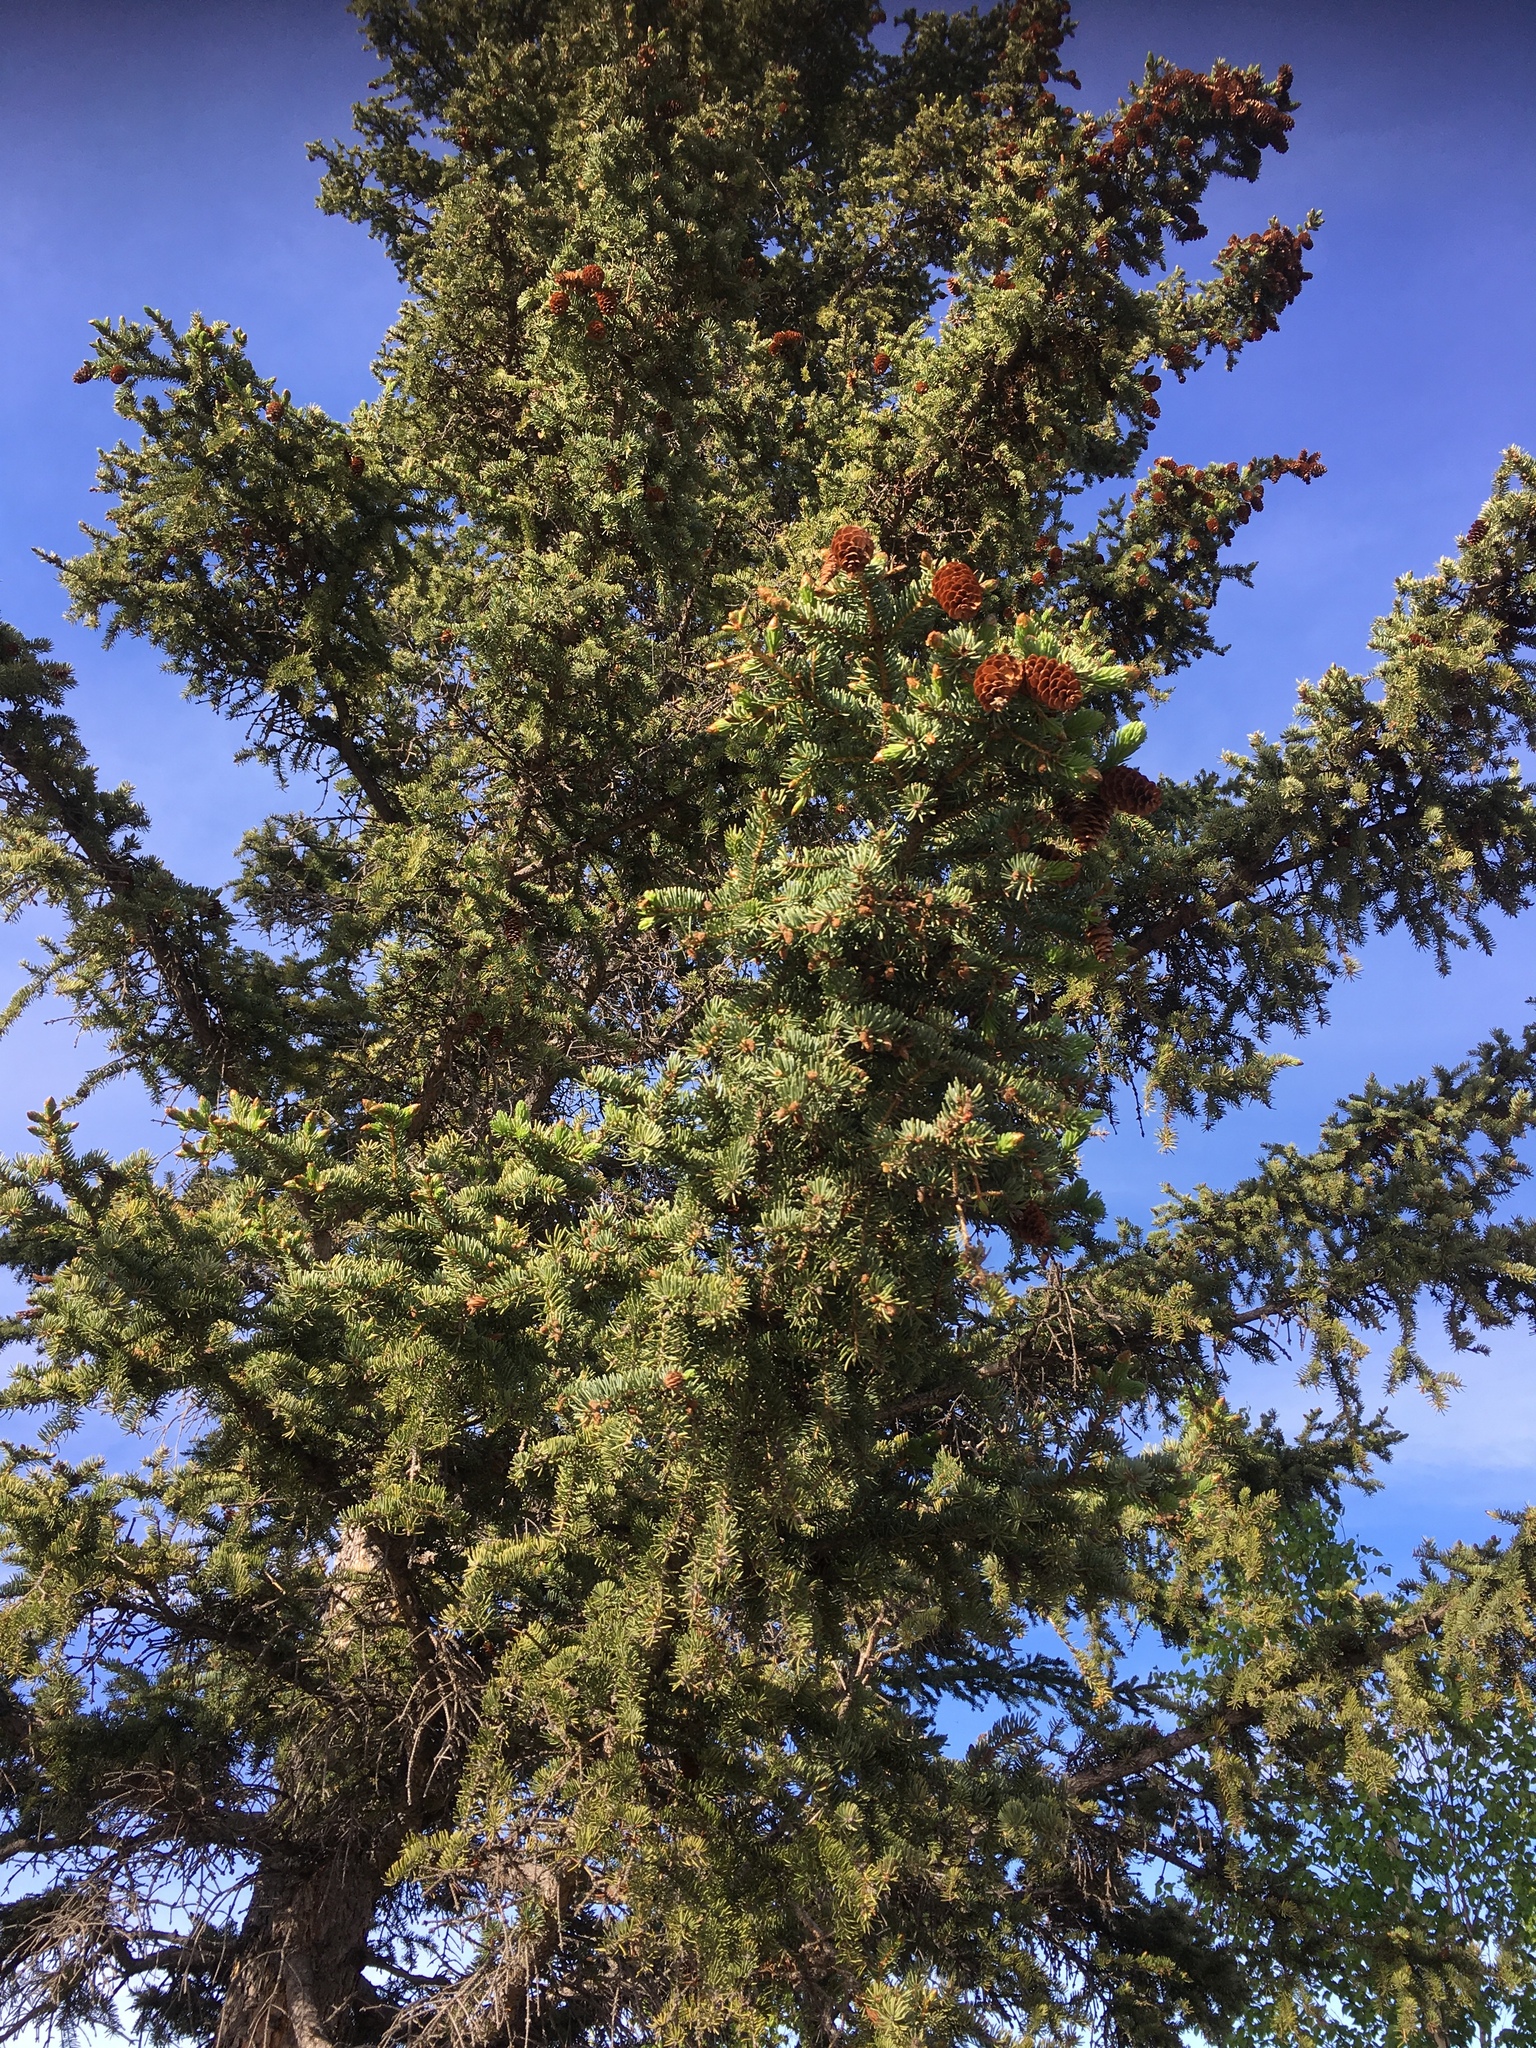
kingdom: Plantae
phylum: Tracheophyta
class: Pinopsida
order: Pinales
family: Pinaceae
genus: Picea
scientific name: Picea glauca
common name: White spruce
